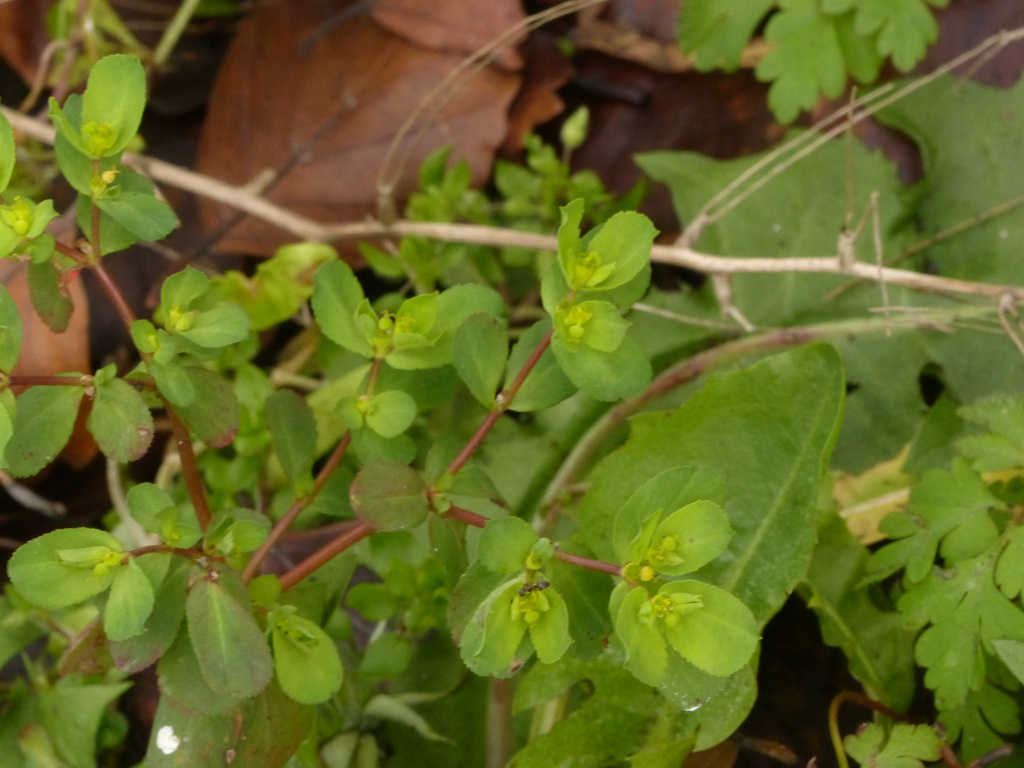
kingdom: Plantae
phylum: Tracheophyta
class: Magnoliopsida
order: Malpighiales
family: Euphorbiaceae
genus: Euphorbia
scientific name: Euphorbia helioscopia
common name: Sun spurge
